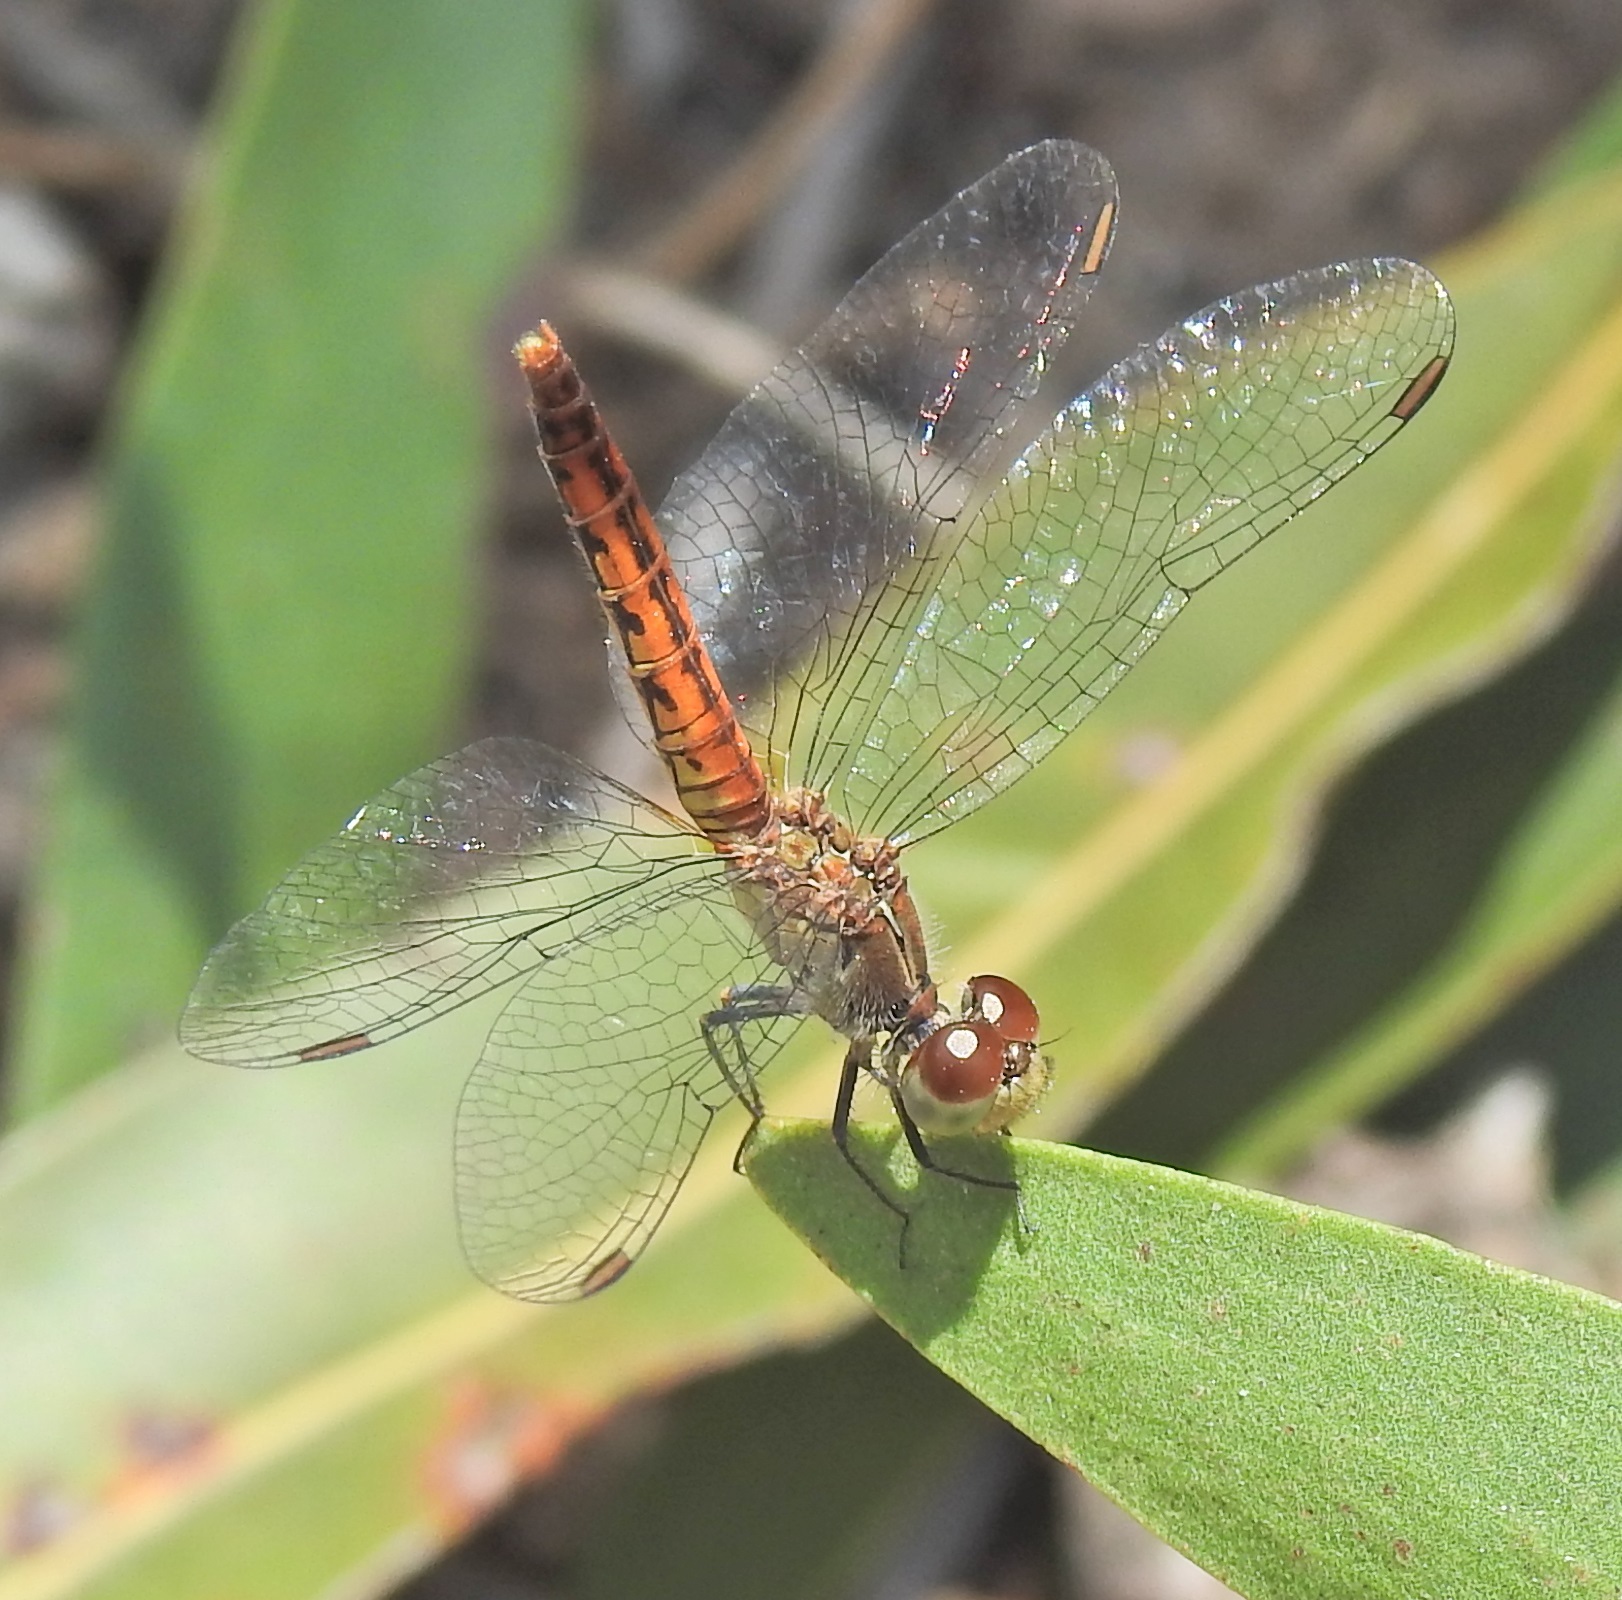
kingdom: Animalia
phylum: Arthropoda
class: Insecta
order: Odonata
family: Libellulidae
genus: Nannodiplax
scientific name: Nannodiplax rubra
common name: Pygmy percher
